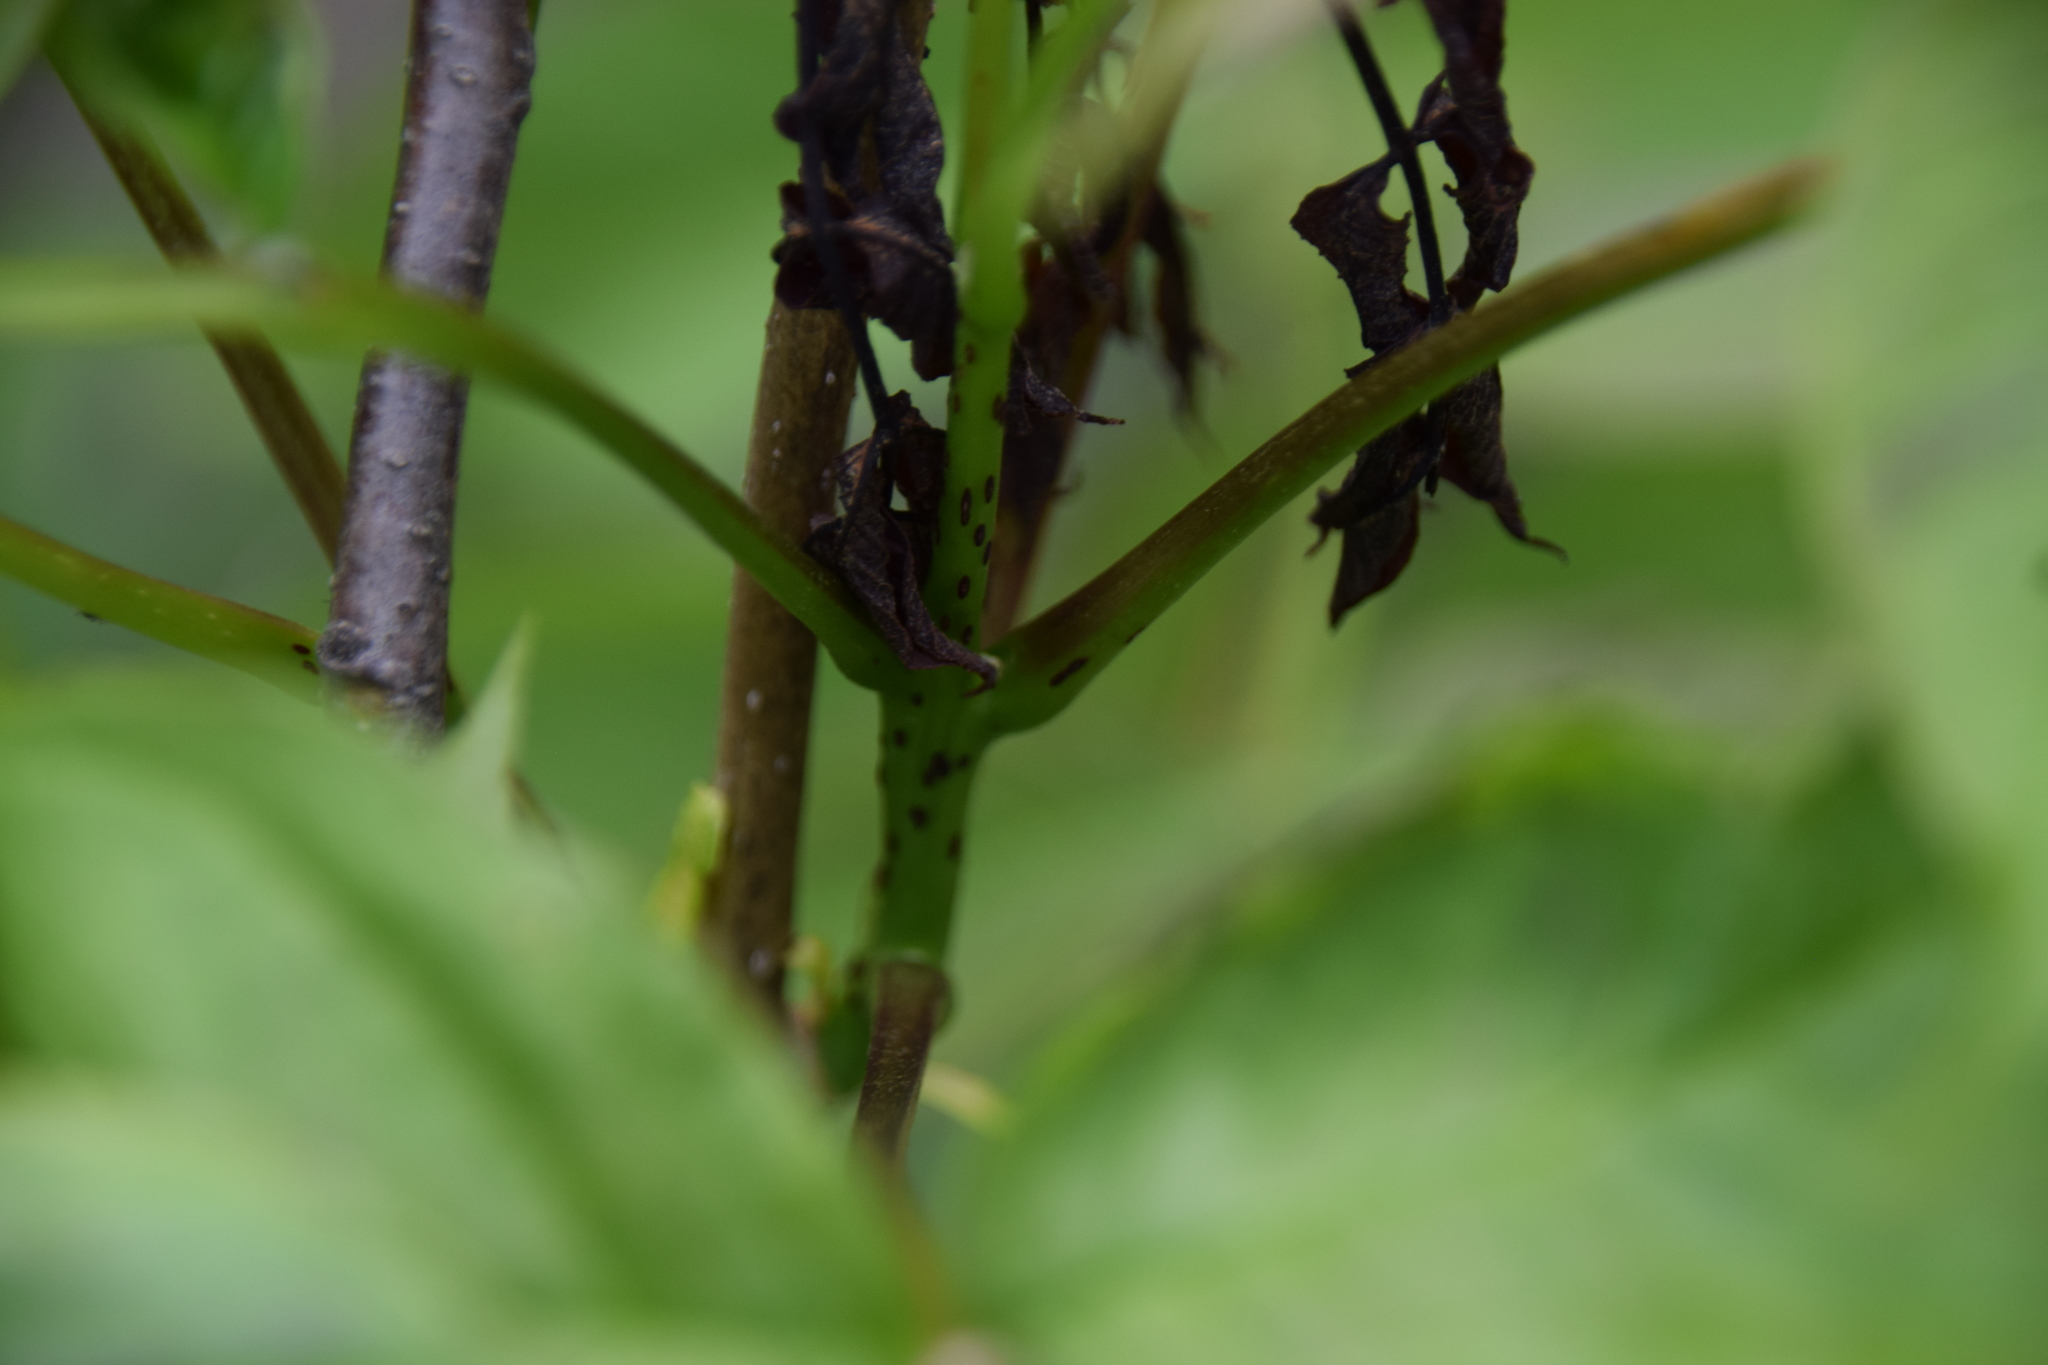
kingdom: Plantae
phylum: Tracheophyta
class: Magnoliopsida
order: Lamiales
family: Oleaceae
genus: Fraxinus
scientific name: Fraxinus nigra
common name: Black ash
